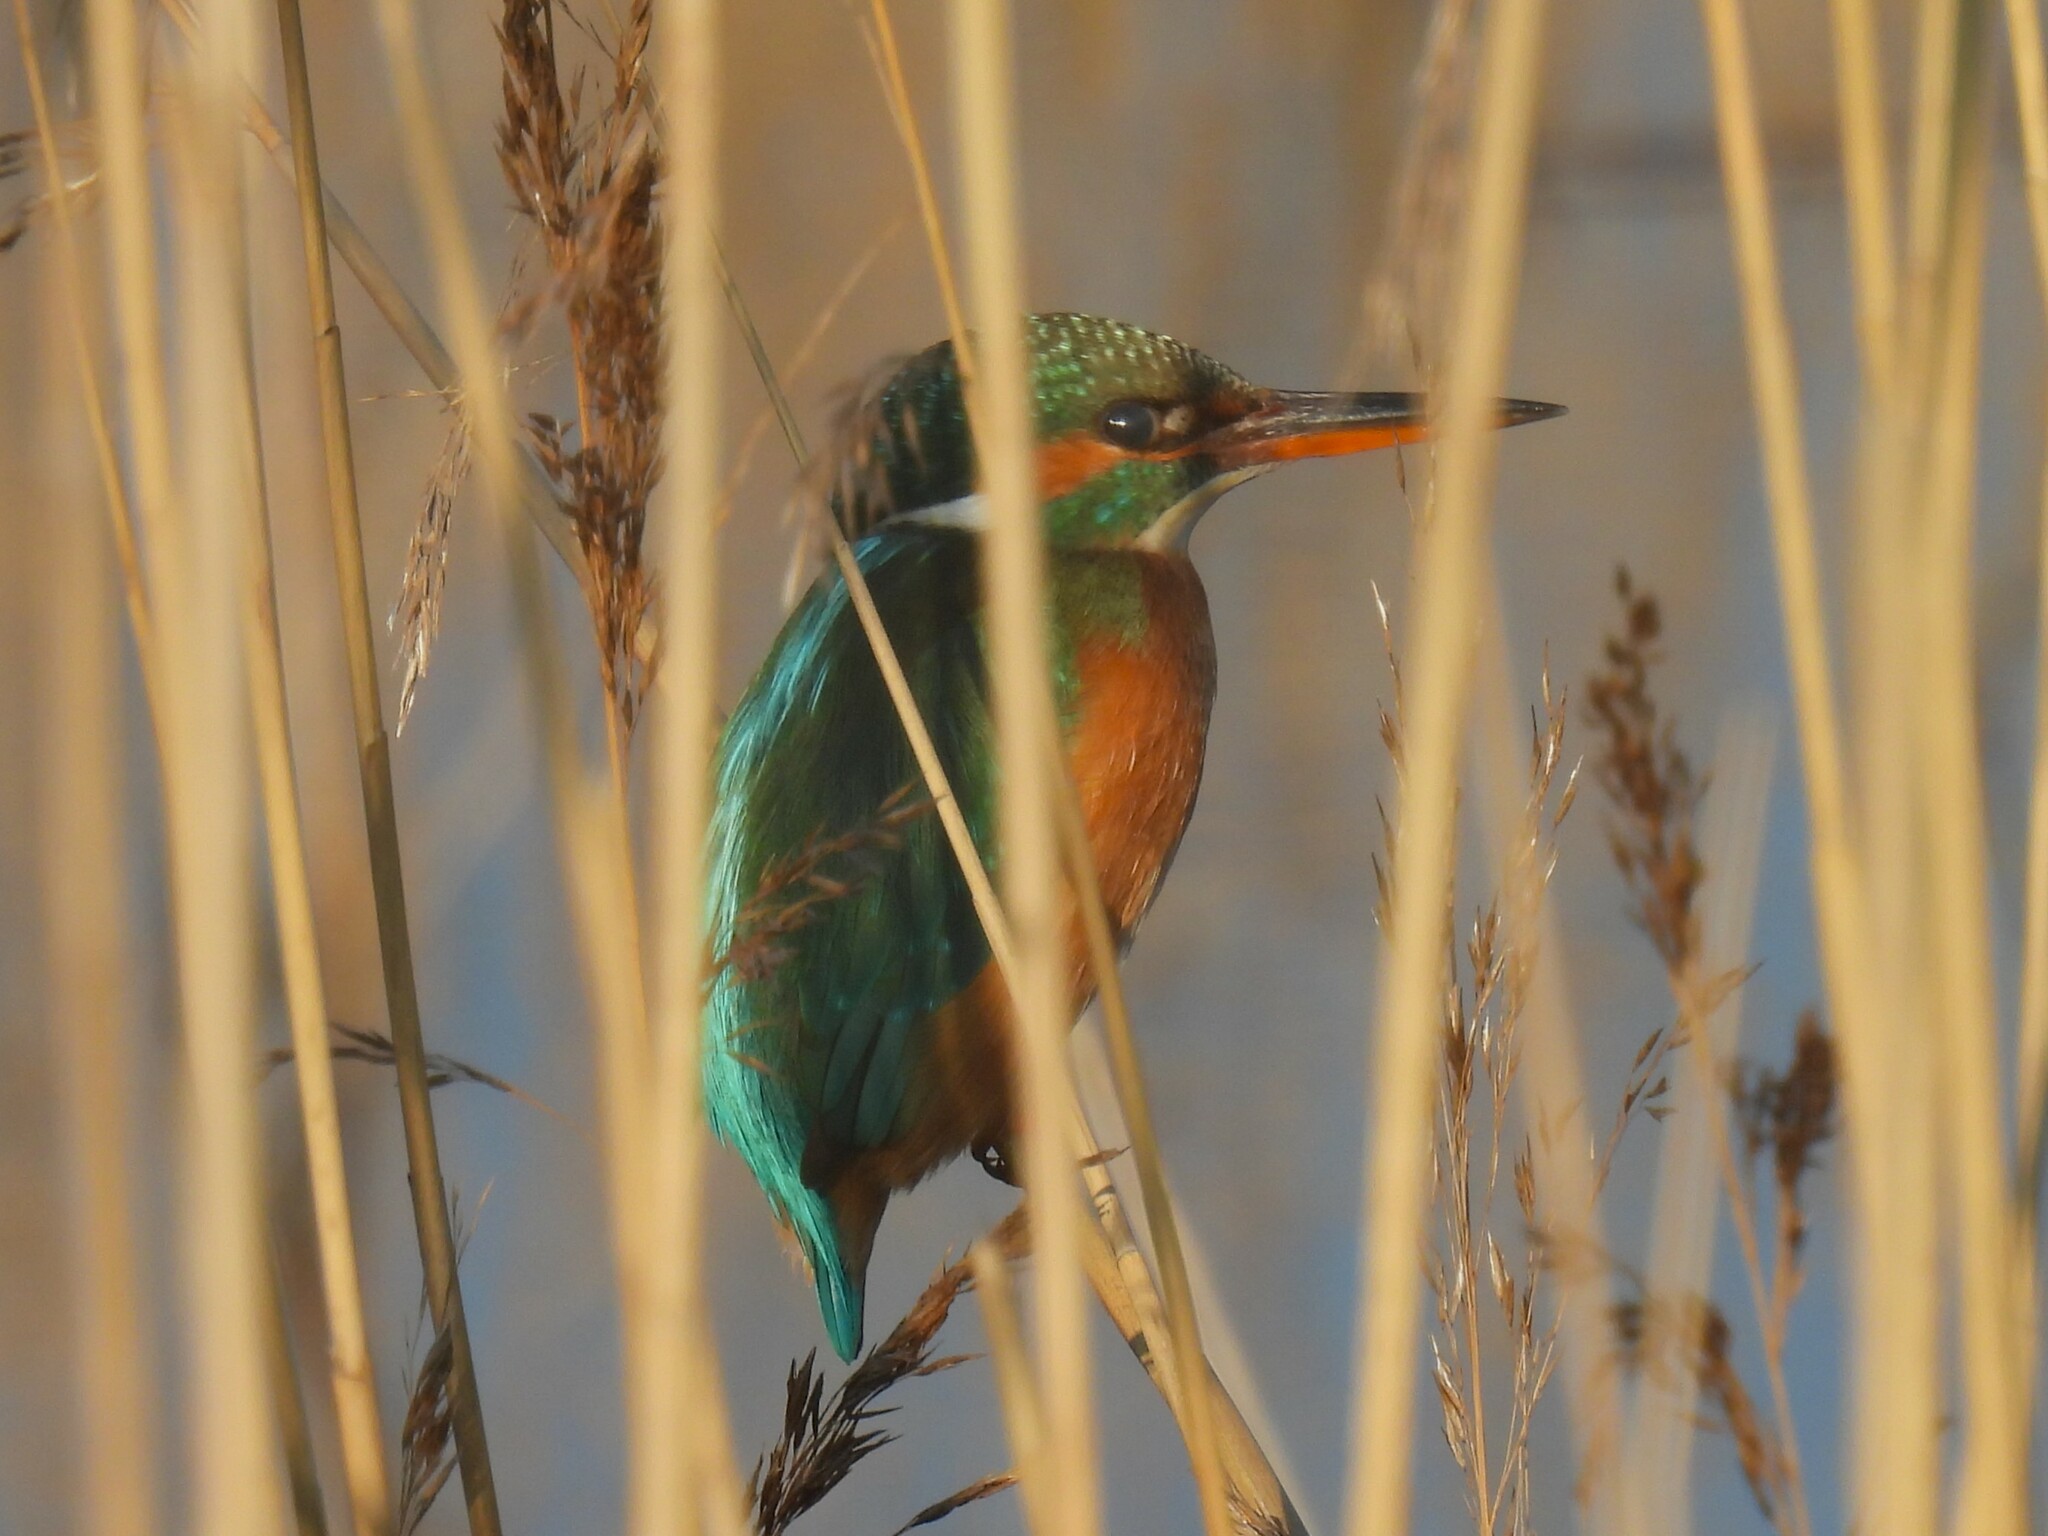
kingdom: Animalia
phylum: Chordata
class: Aves
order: Coraciiformes
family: Alcedinidae
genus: Alcedo
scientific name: Alcedo atthis
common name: Common kingfisher
